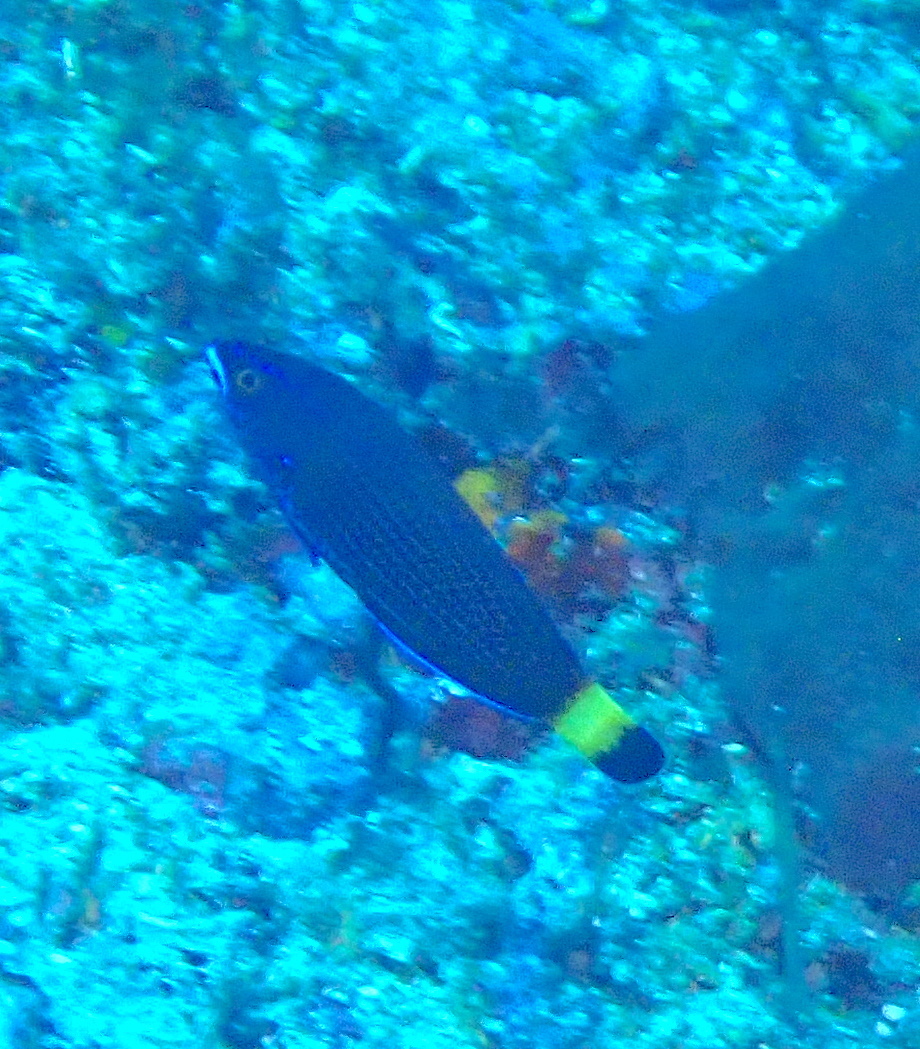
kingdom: Animalia
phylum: Chordata
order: Perciformes
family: Labridae
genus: Pseudodax
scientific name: Pseudodax moluccanus
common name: Chiseltooth wrasse
